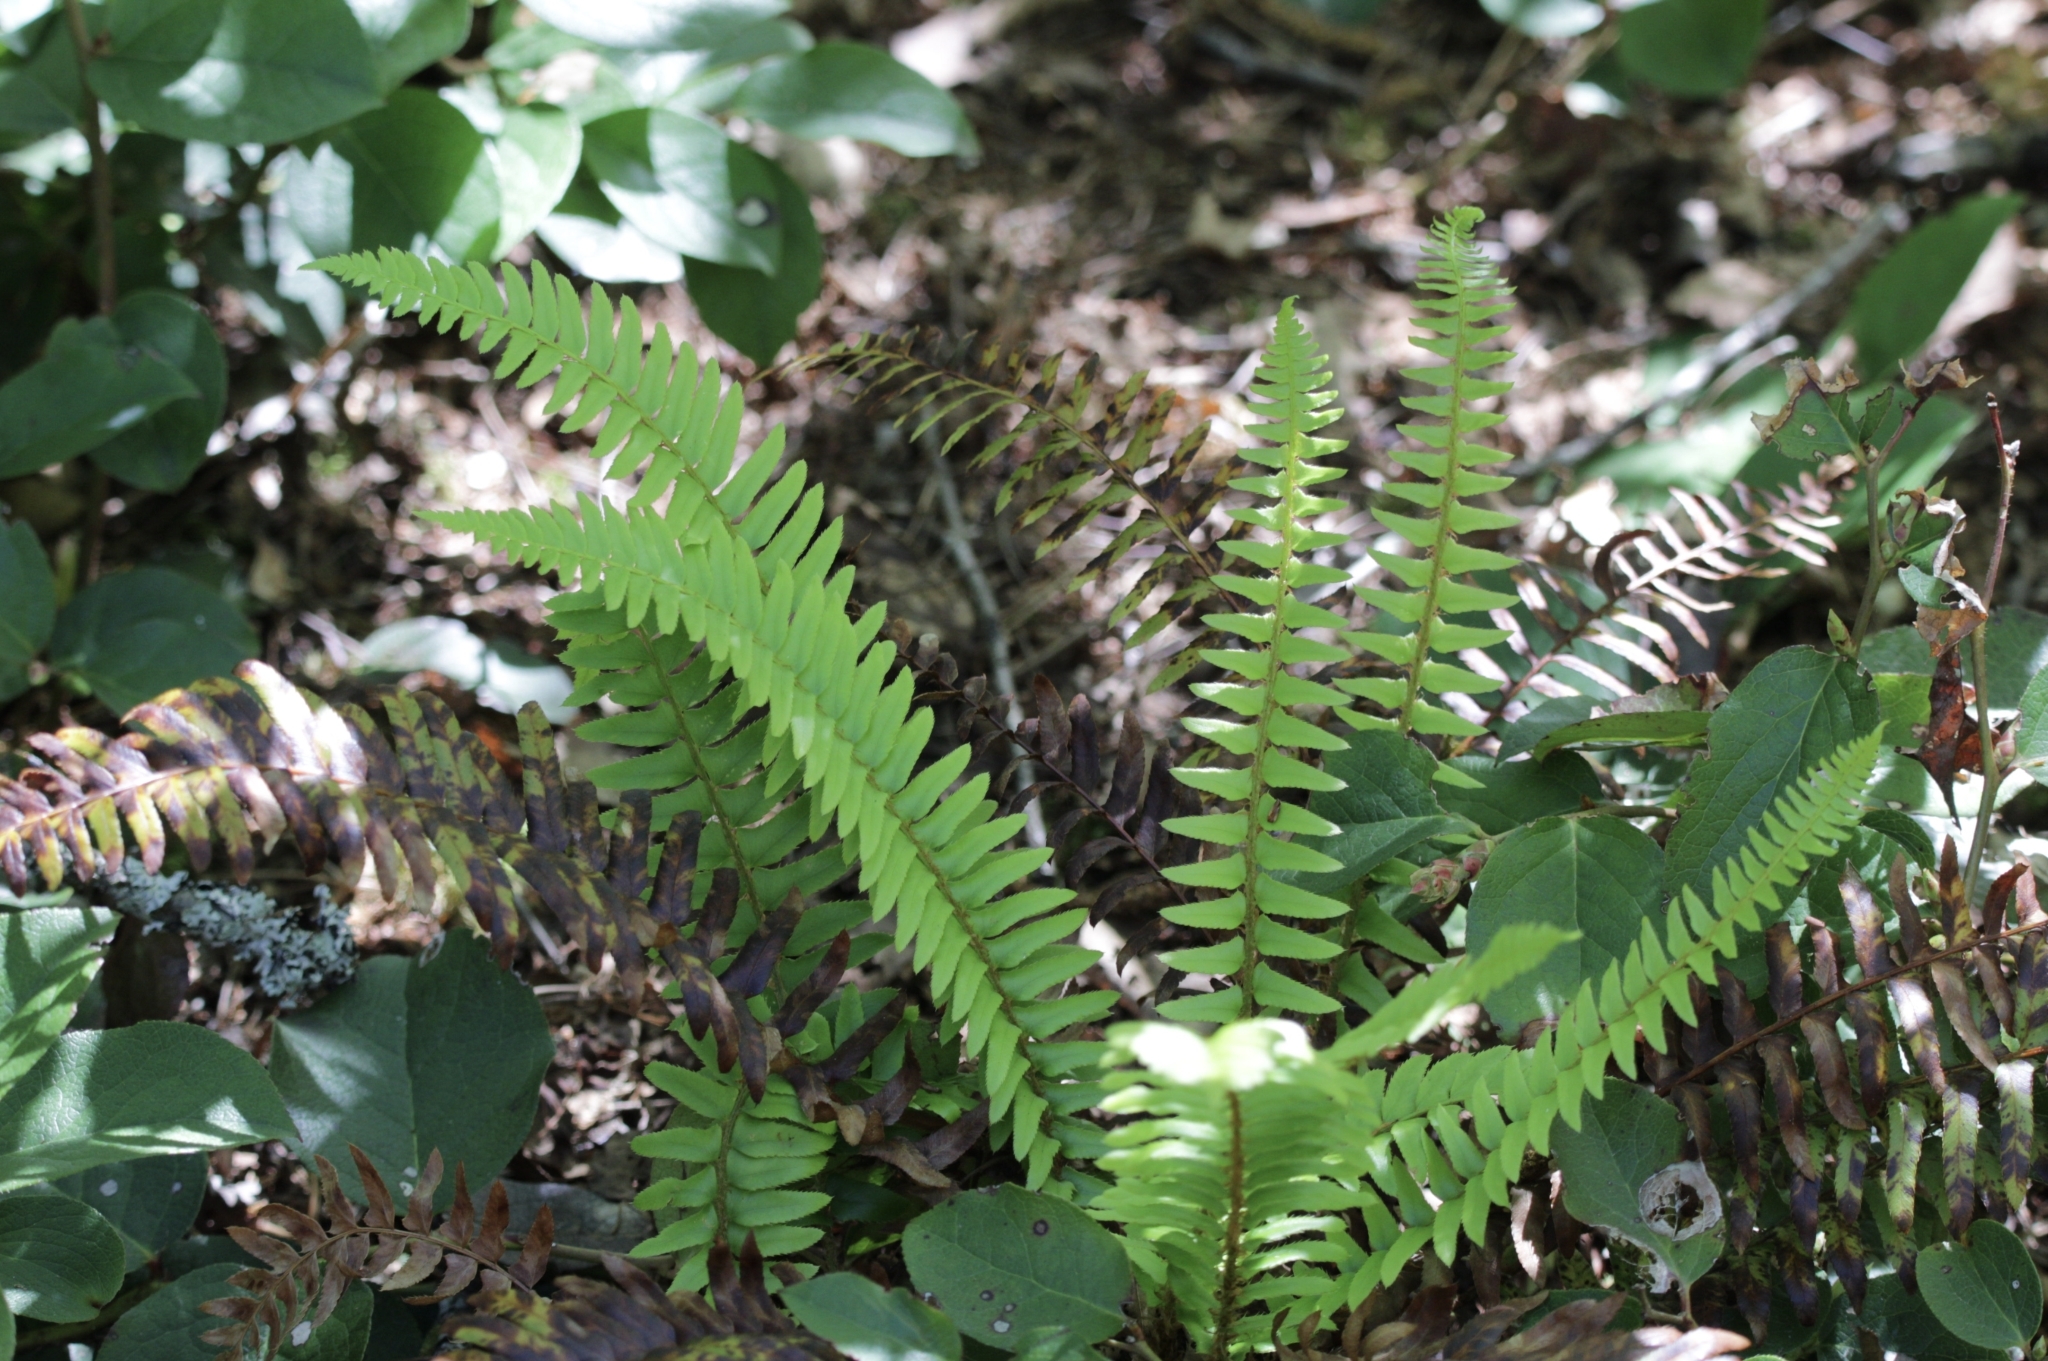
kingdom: Plantae
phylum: Tracheophyta
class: Polypodiopsida
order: Polypodiales
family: Dryopteridaceae
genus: Polystichum
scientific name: Polystichum munitum
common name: Western sword-fern
